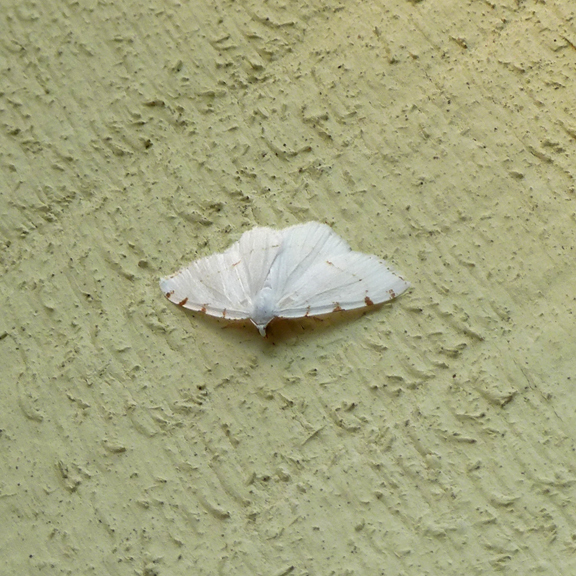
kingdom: Animalia
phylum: Arthropoda
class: Insecta
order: Lepidoptera
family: Geometridae
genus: Macaria
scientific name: Macaria pustularia
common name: Lesser maple spanworm moth
